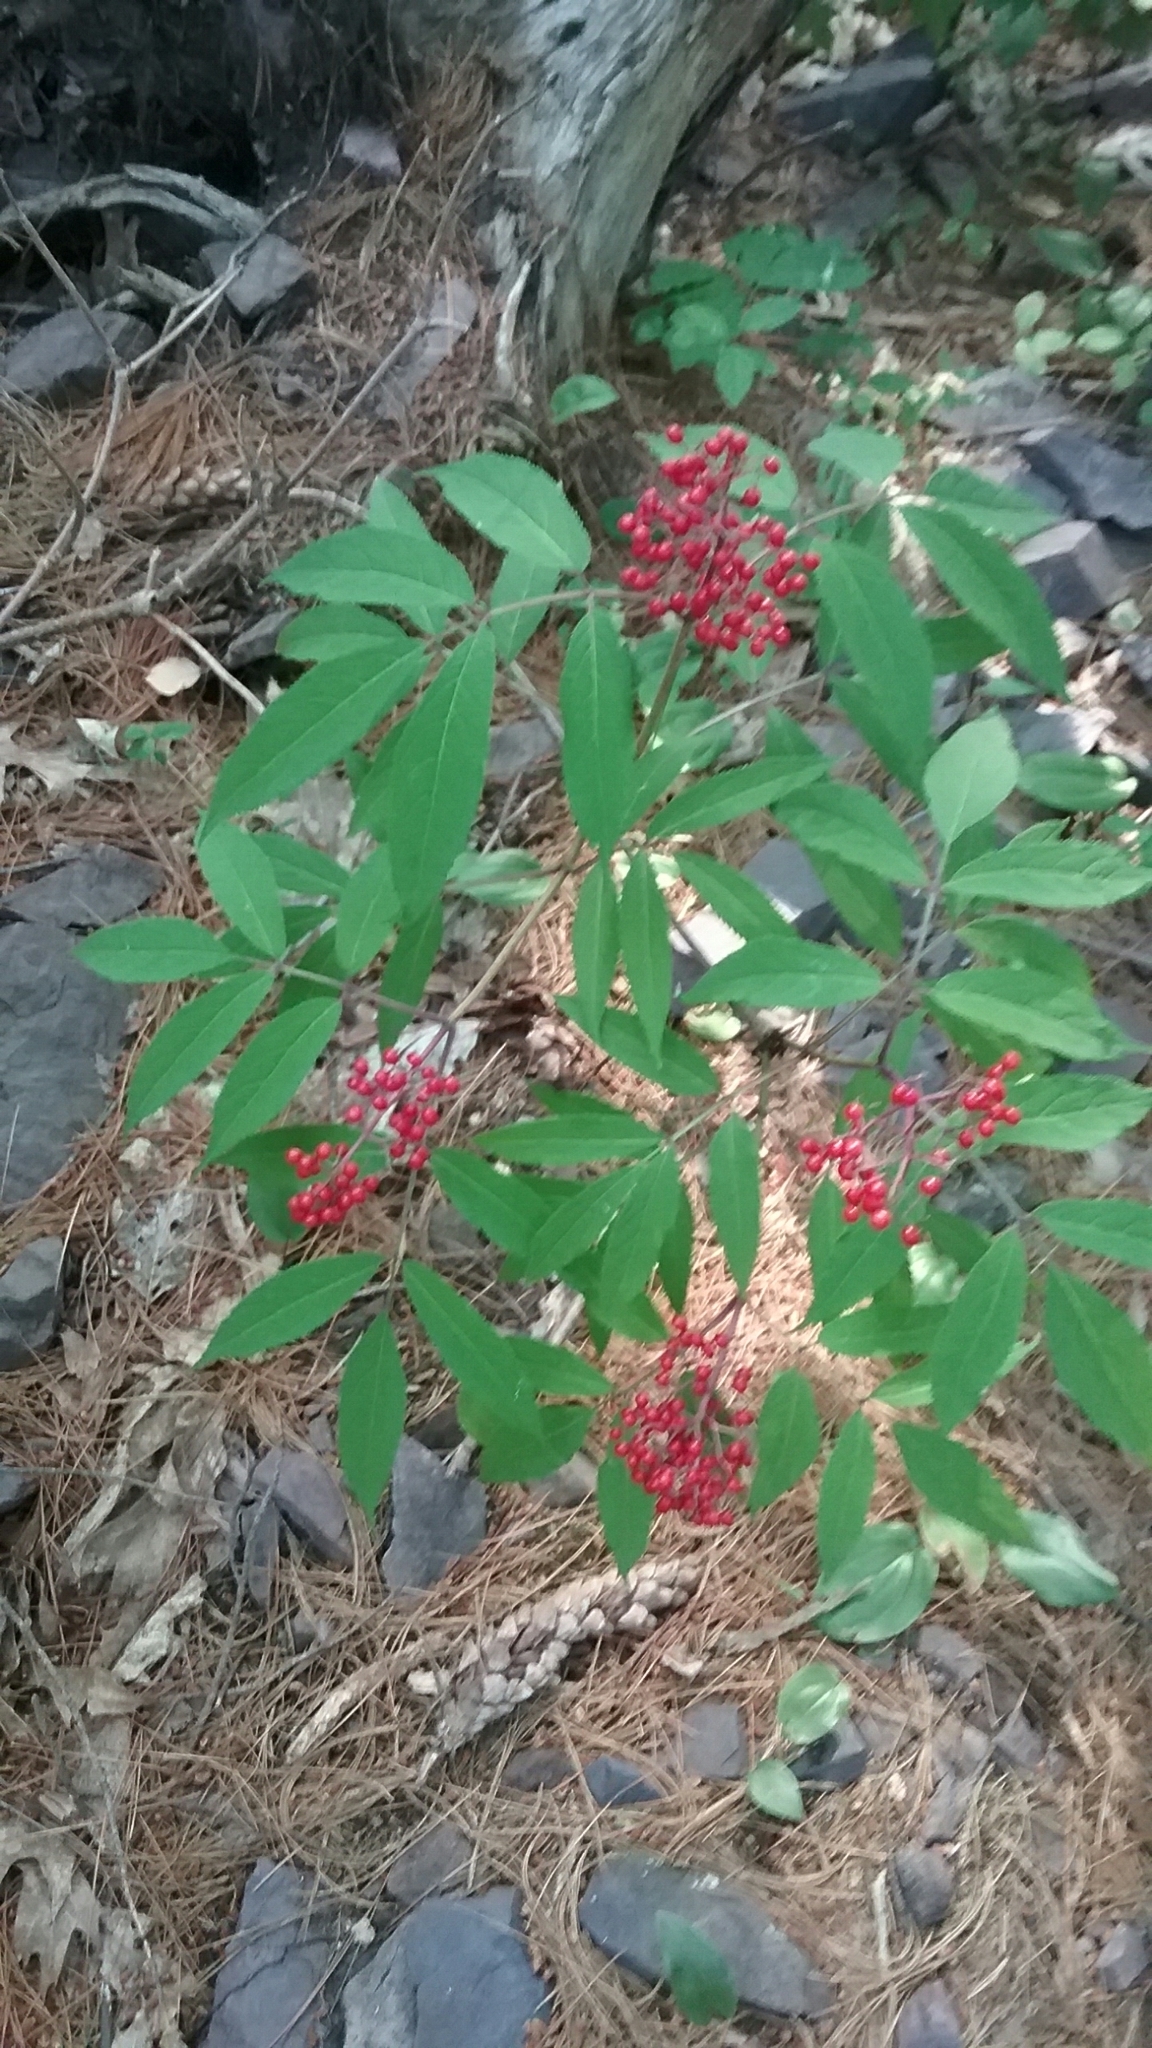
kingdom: Plantae
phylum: Tracheophyta
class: Magnoliopsida
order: Dipsacales
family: Viburnaceae
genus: Sambucus
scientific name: Sambucus racemosa
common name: Red-berried elder
